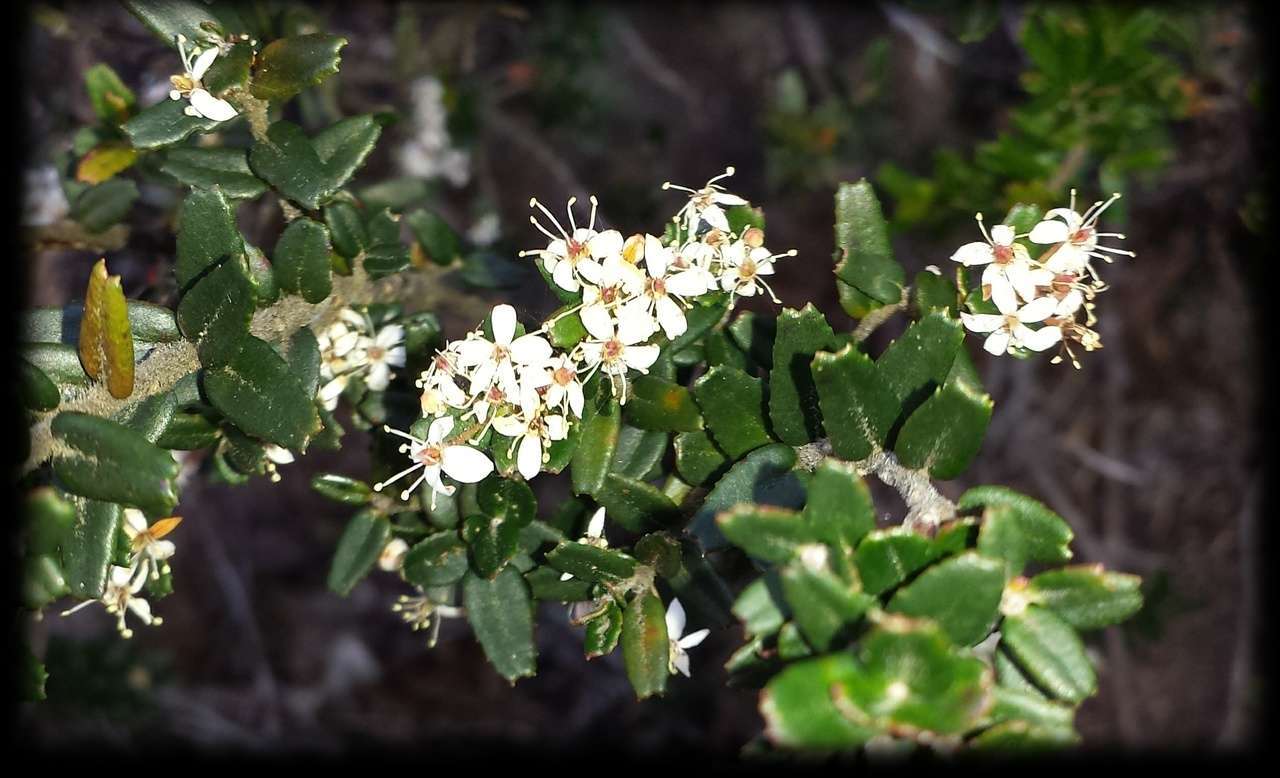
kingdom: Plantae
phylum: Tracheophyta
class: Magnoliopsida
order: Sapindales
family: Rutaceae
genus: Leionema
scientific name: Leionema bilobum
